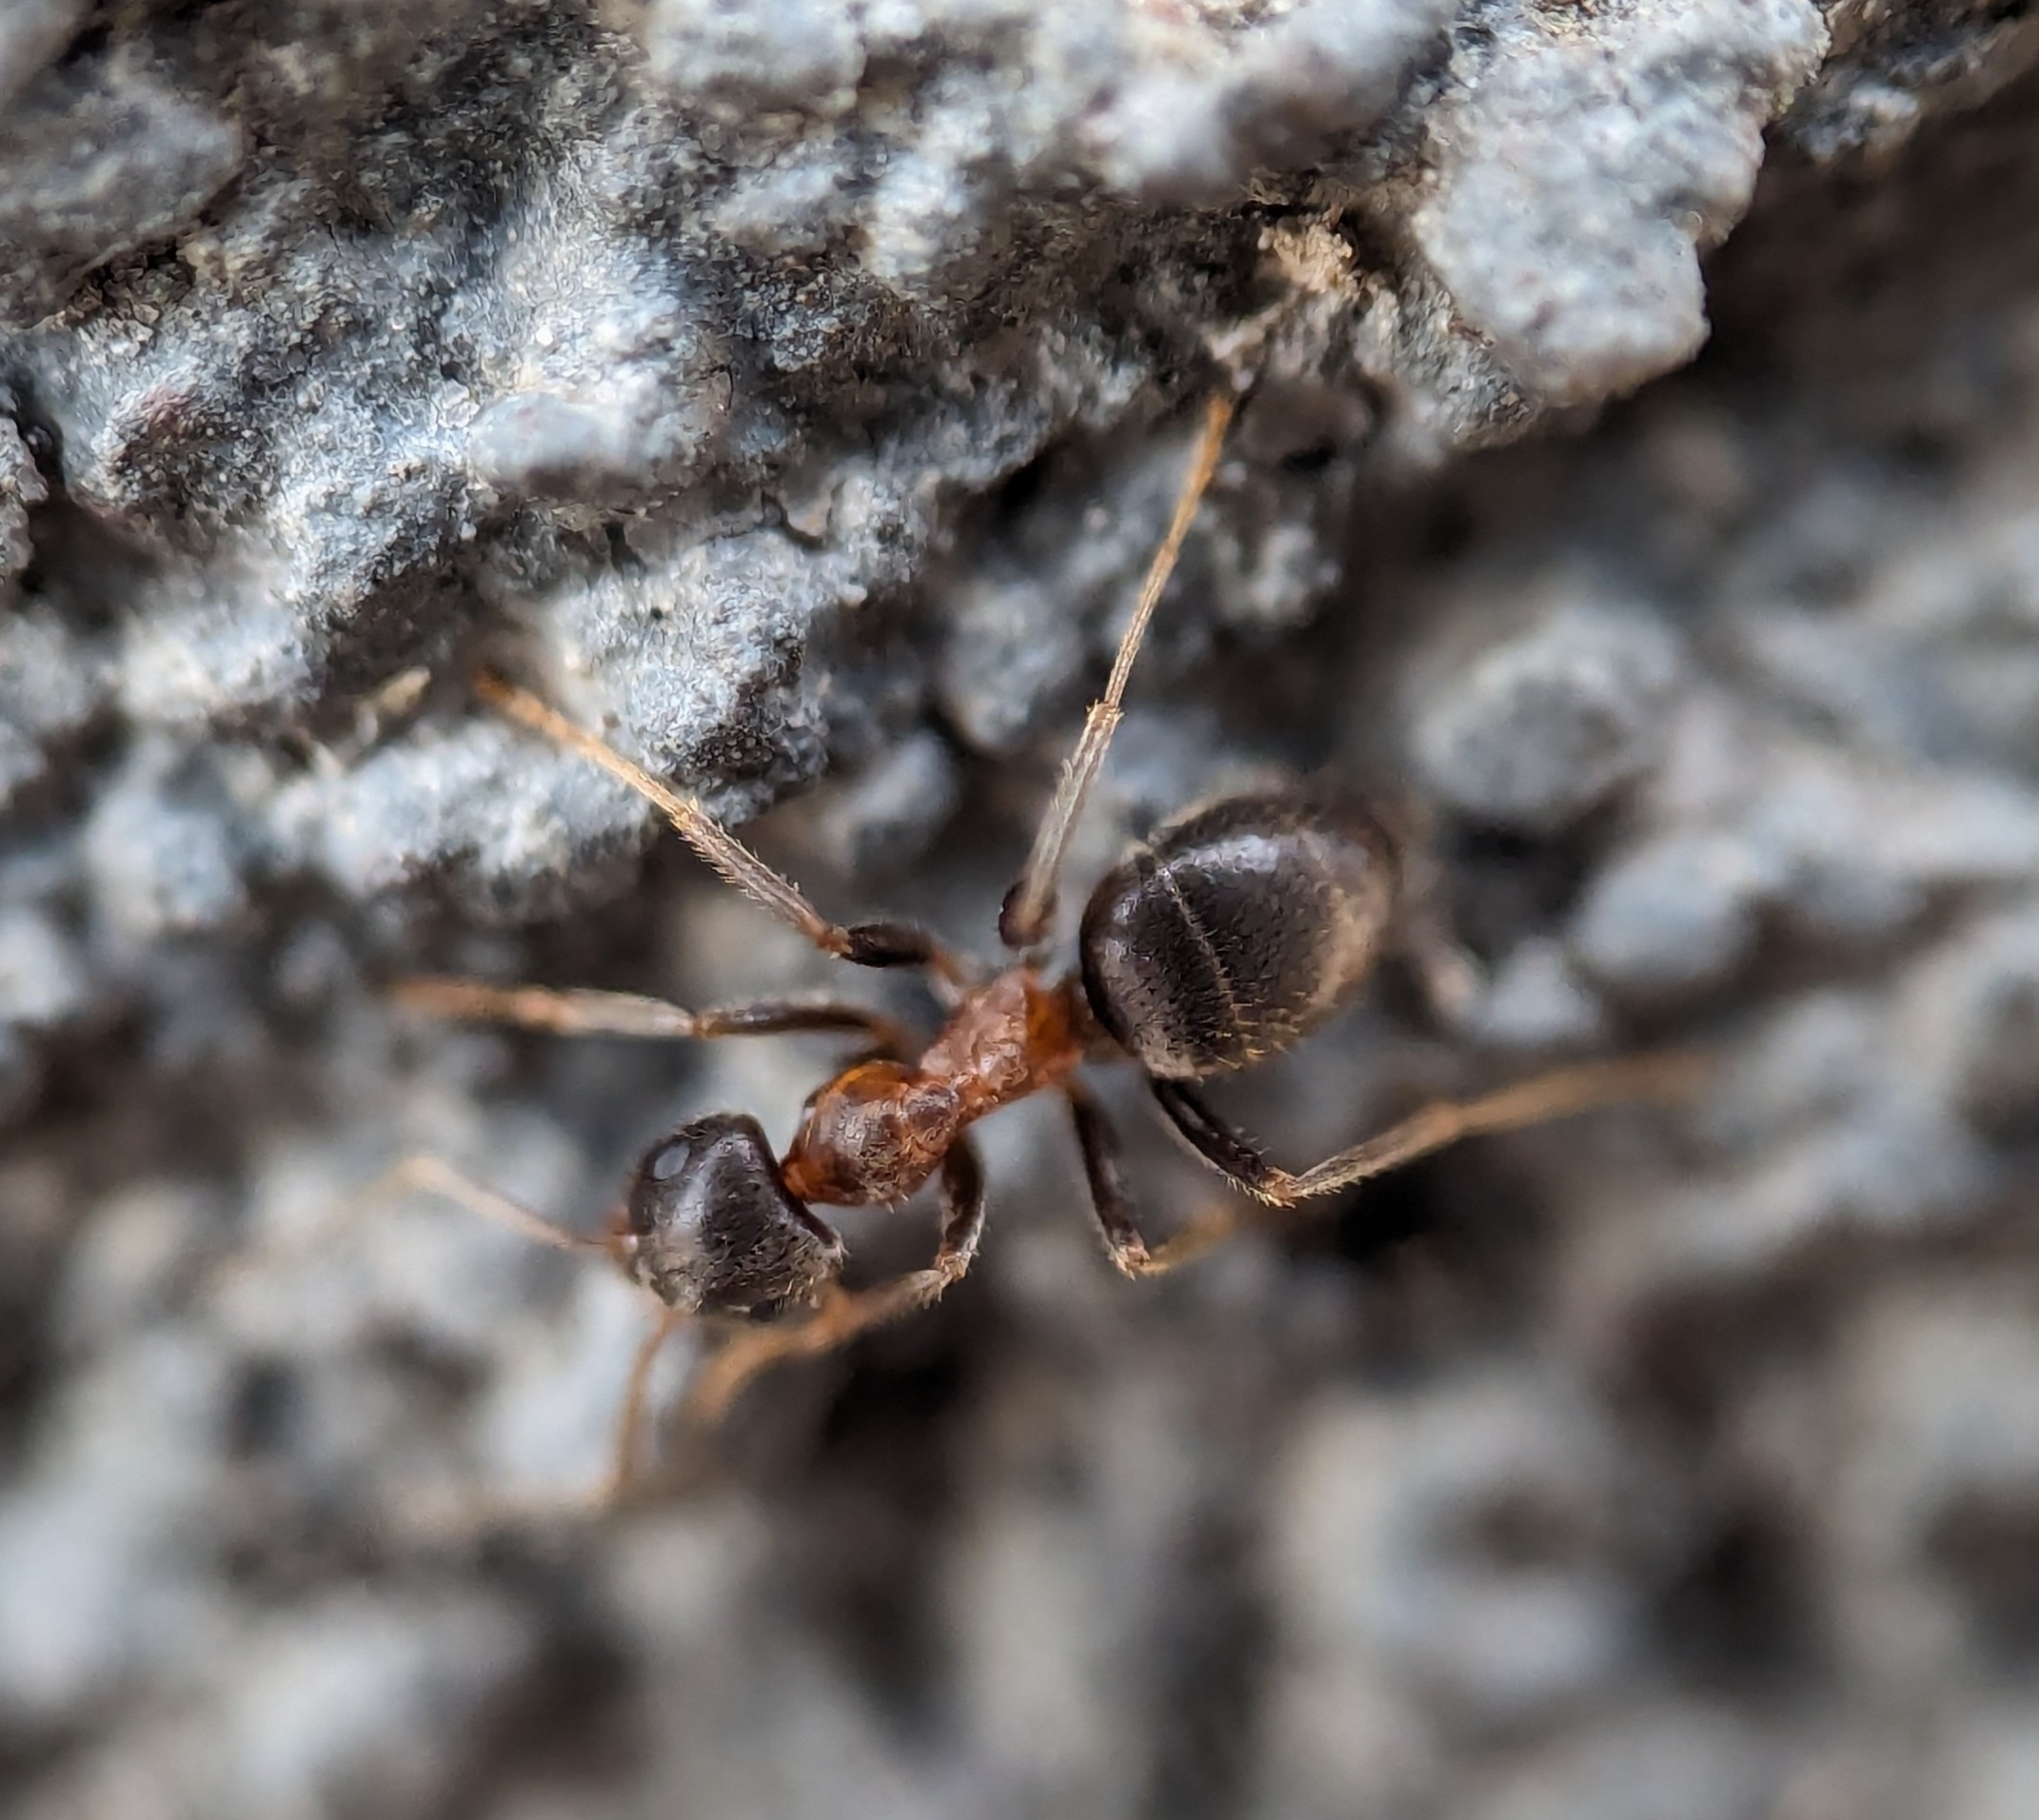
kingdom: Animalia
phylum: Arthropoda
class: Insecta
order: Hymenoptera
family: Formicidae
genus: Lasius
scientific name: Lasius emarginatus
